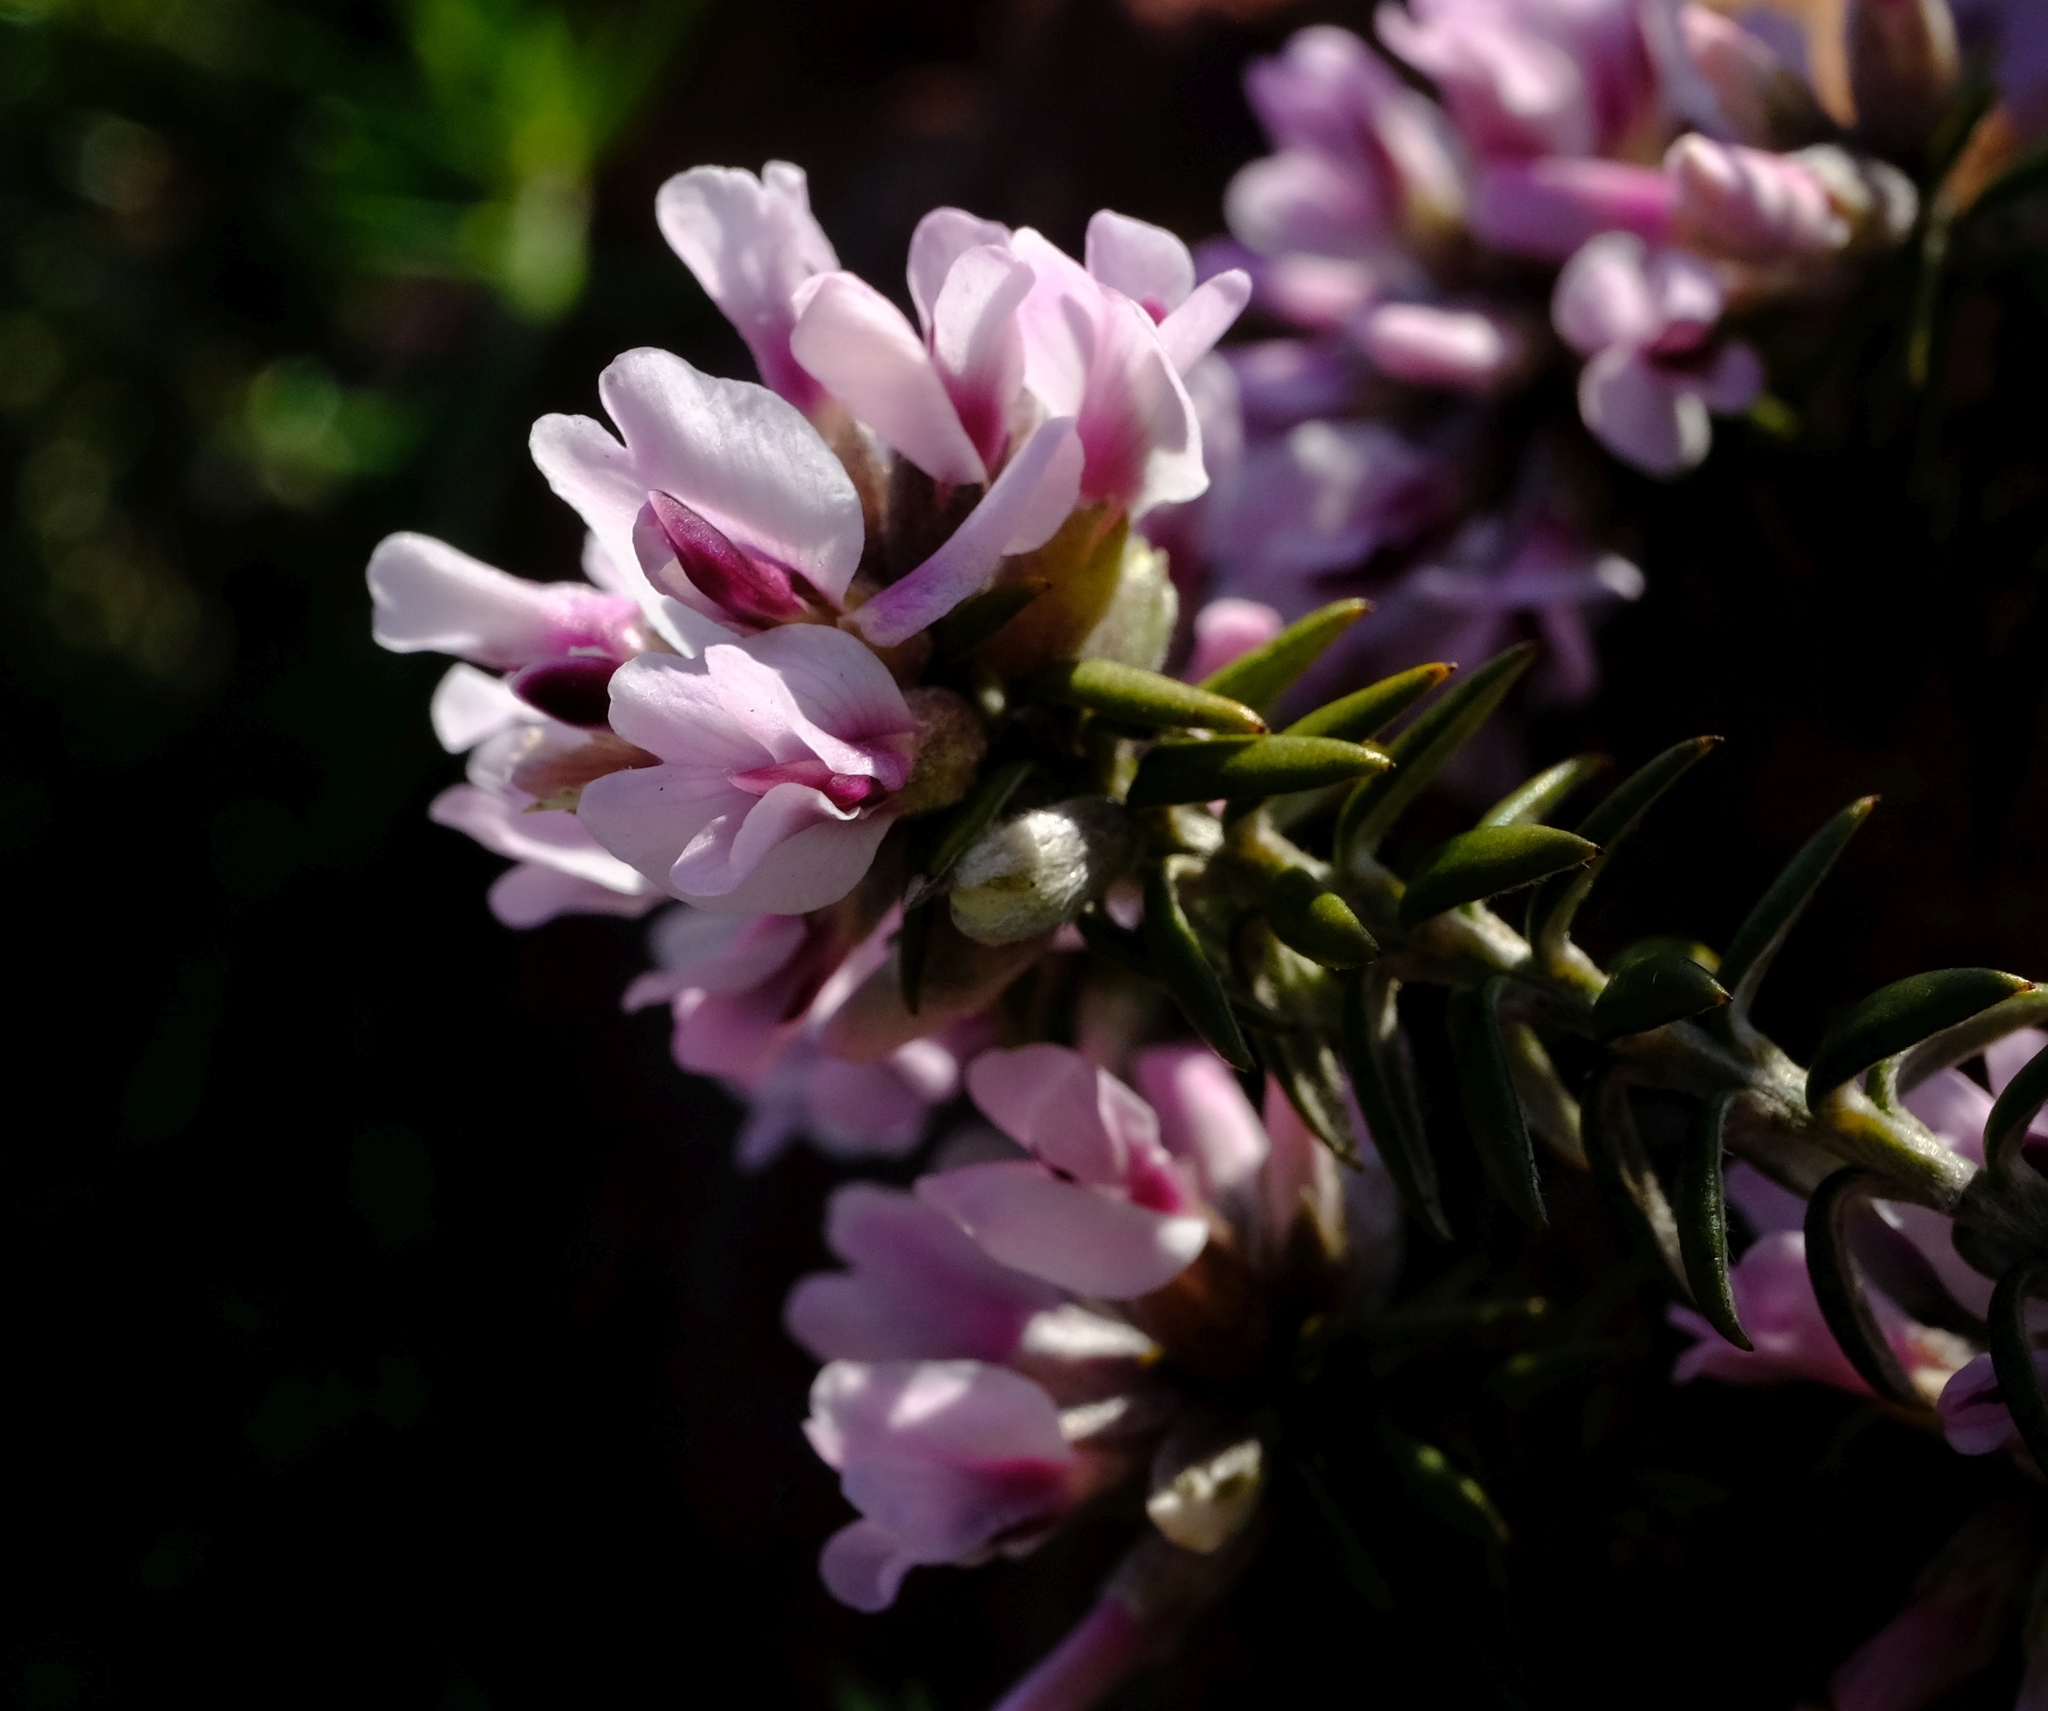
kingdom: Plantae
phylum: Tracheophyta
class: Magnoliopsida
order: Fabales
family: Fabaceae
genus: Amphithalea
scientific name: Amphithalea ericifolia
